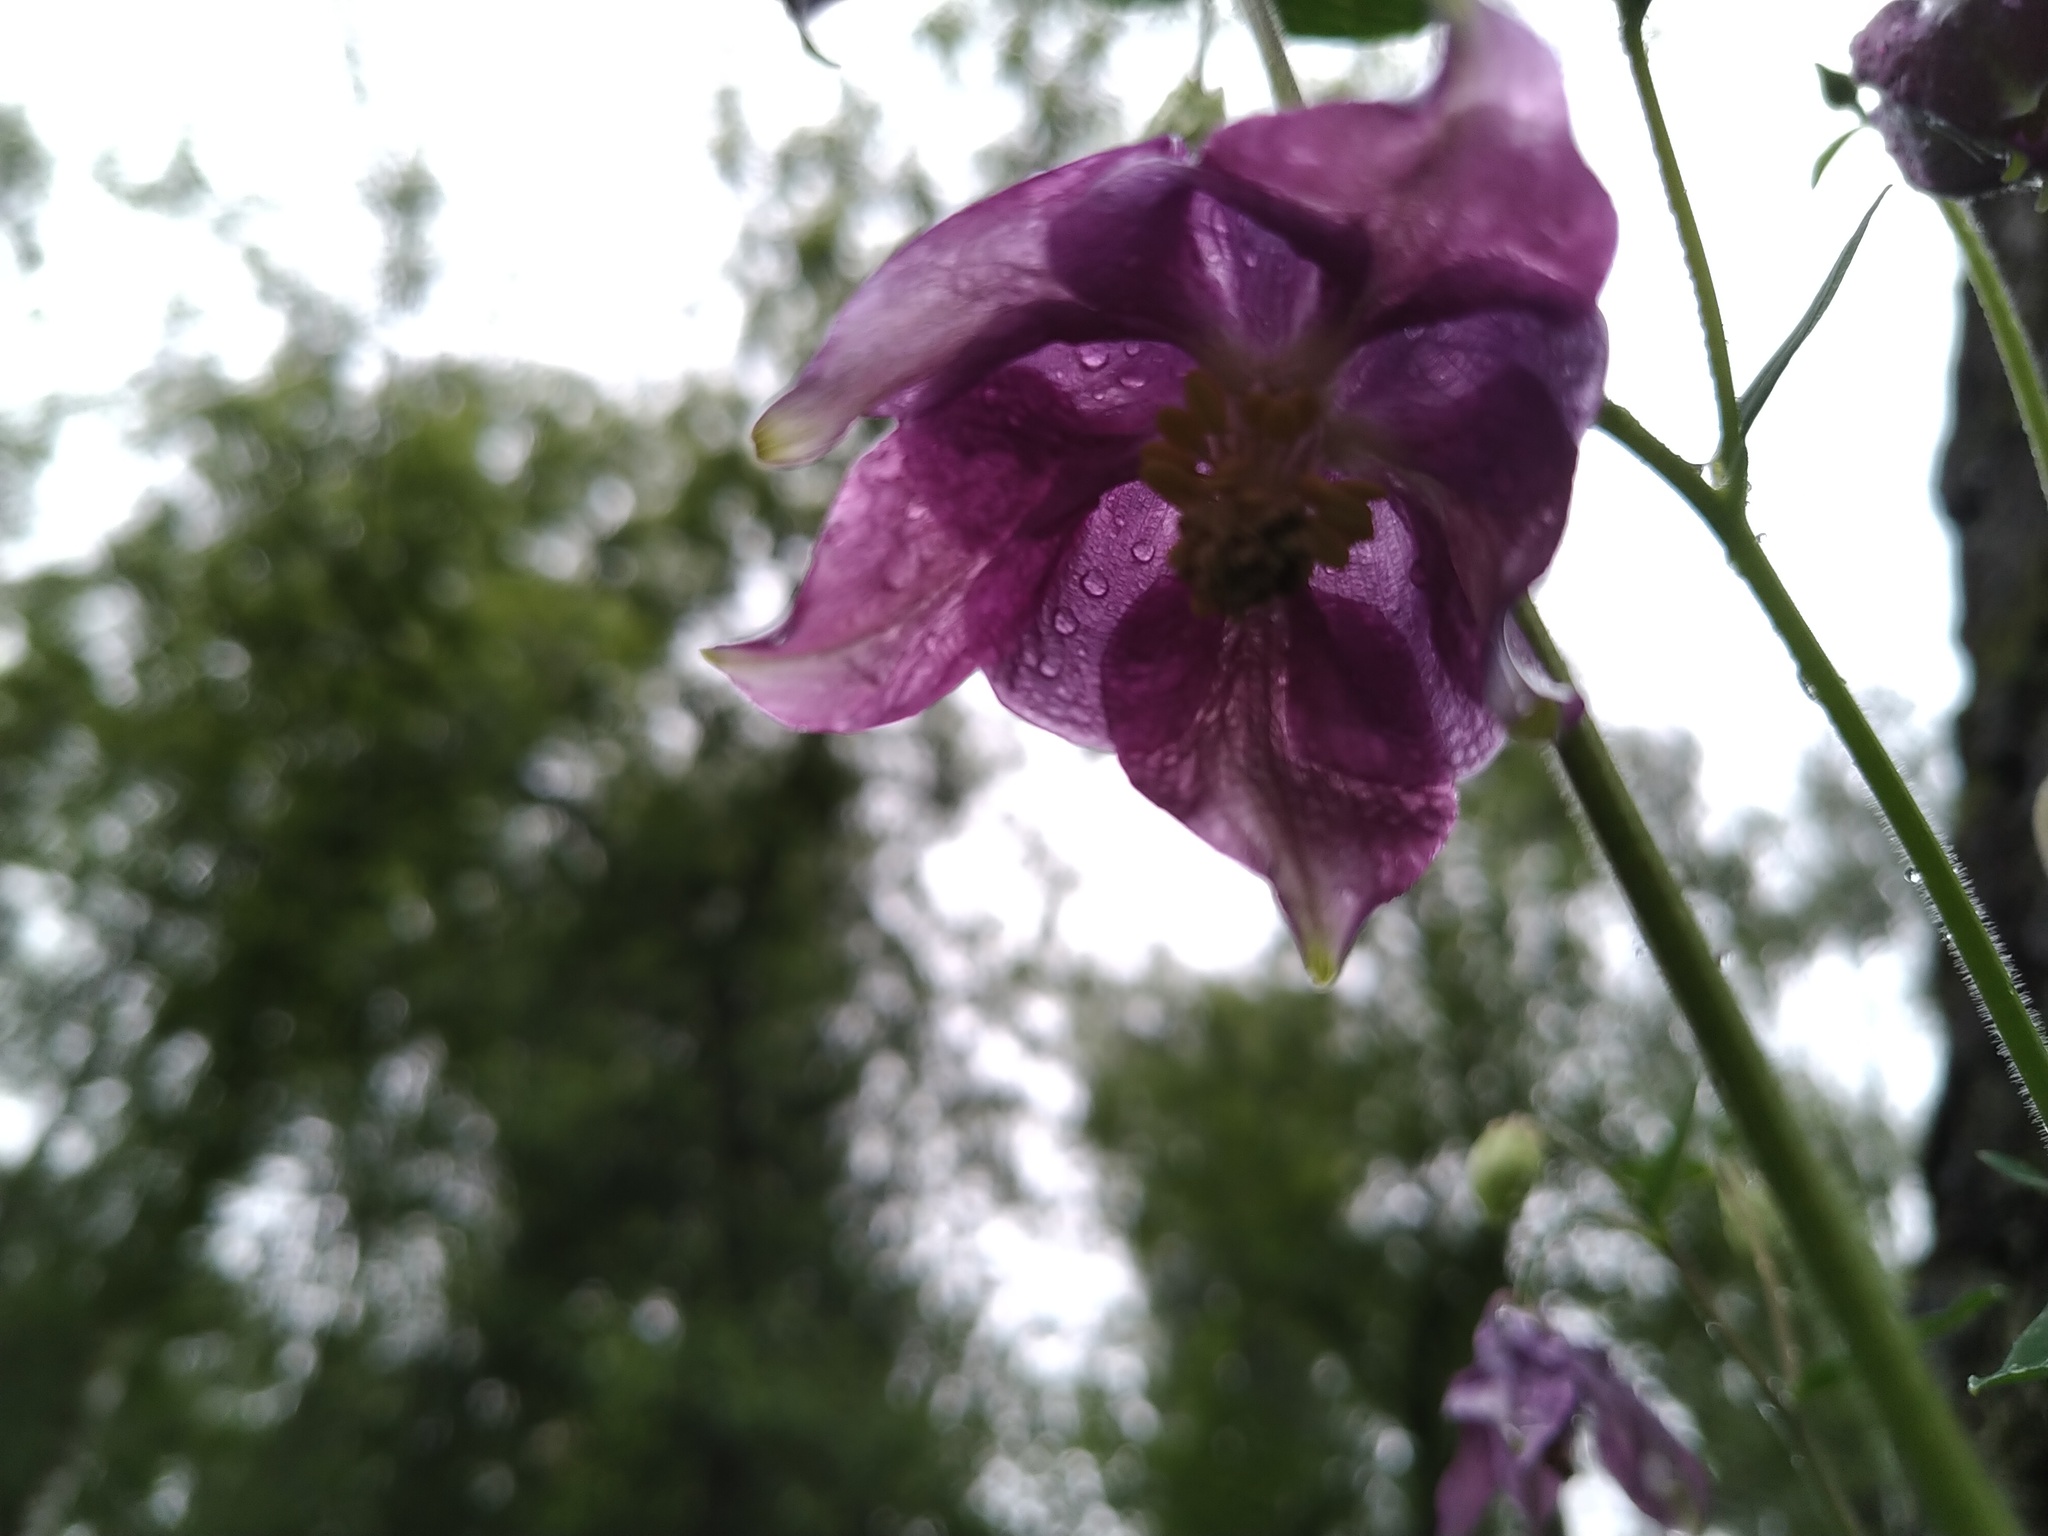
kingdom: Plantae
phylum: Tracheophyta
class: Magnoliopsida
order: Ranunculales
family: Ranunculaceae
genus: Aquilegia
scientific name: Aquilegia vulgaris
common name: Columbine
